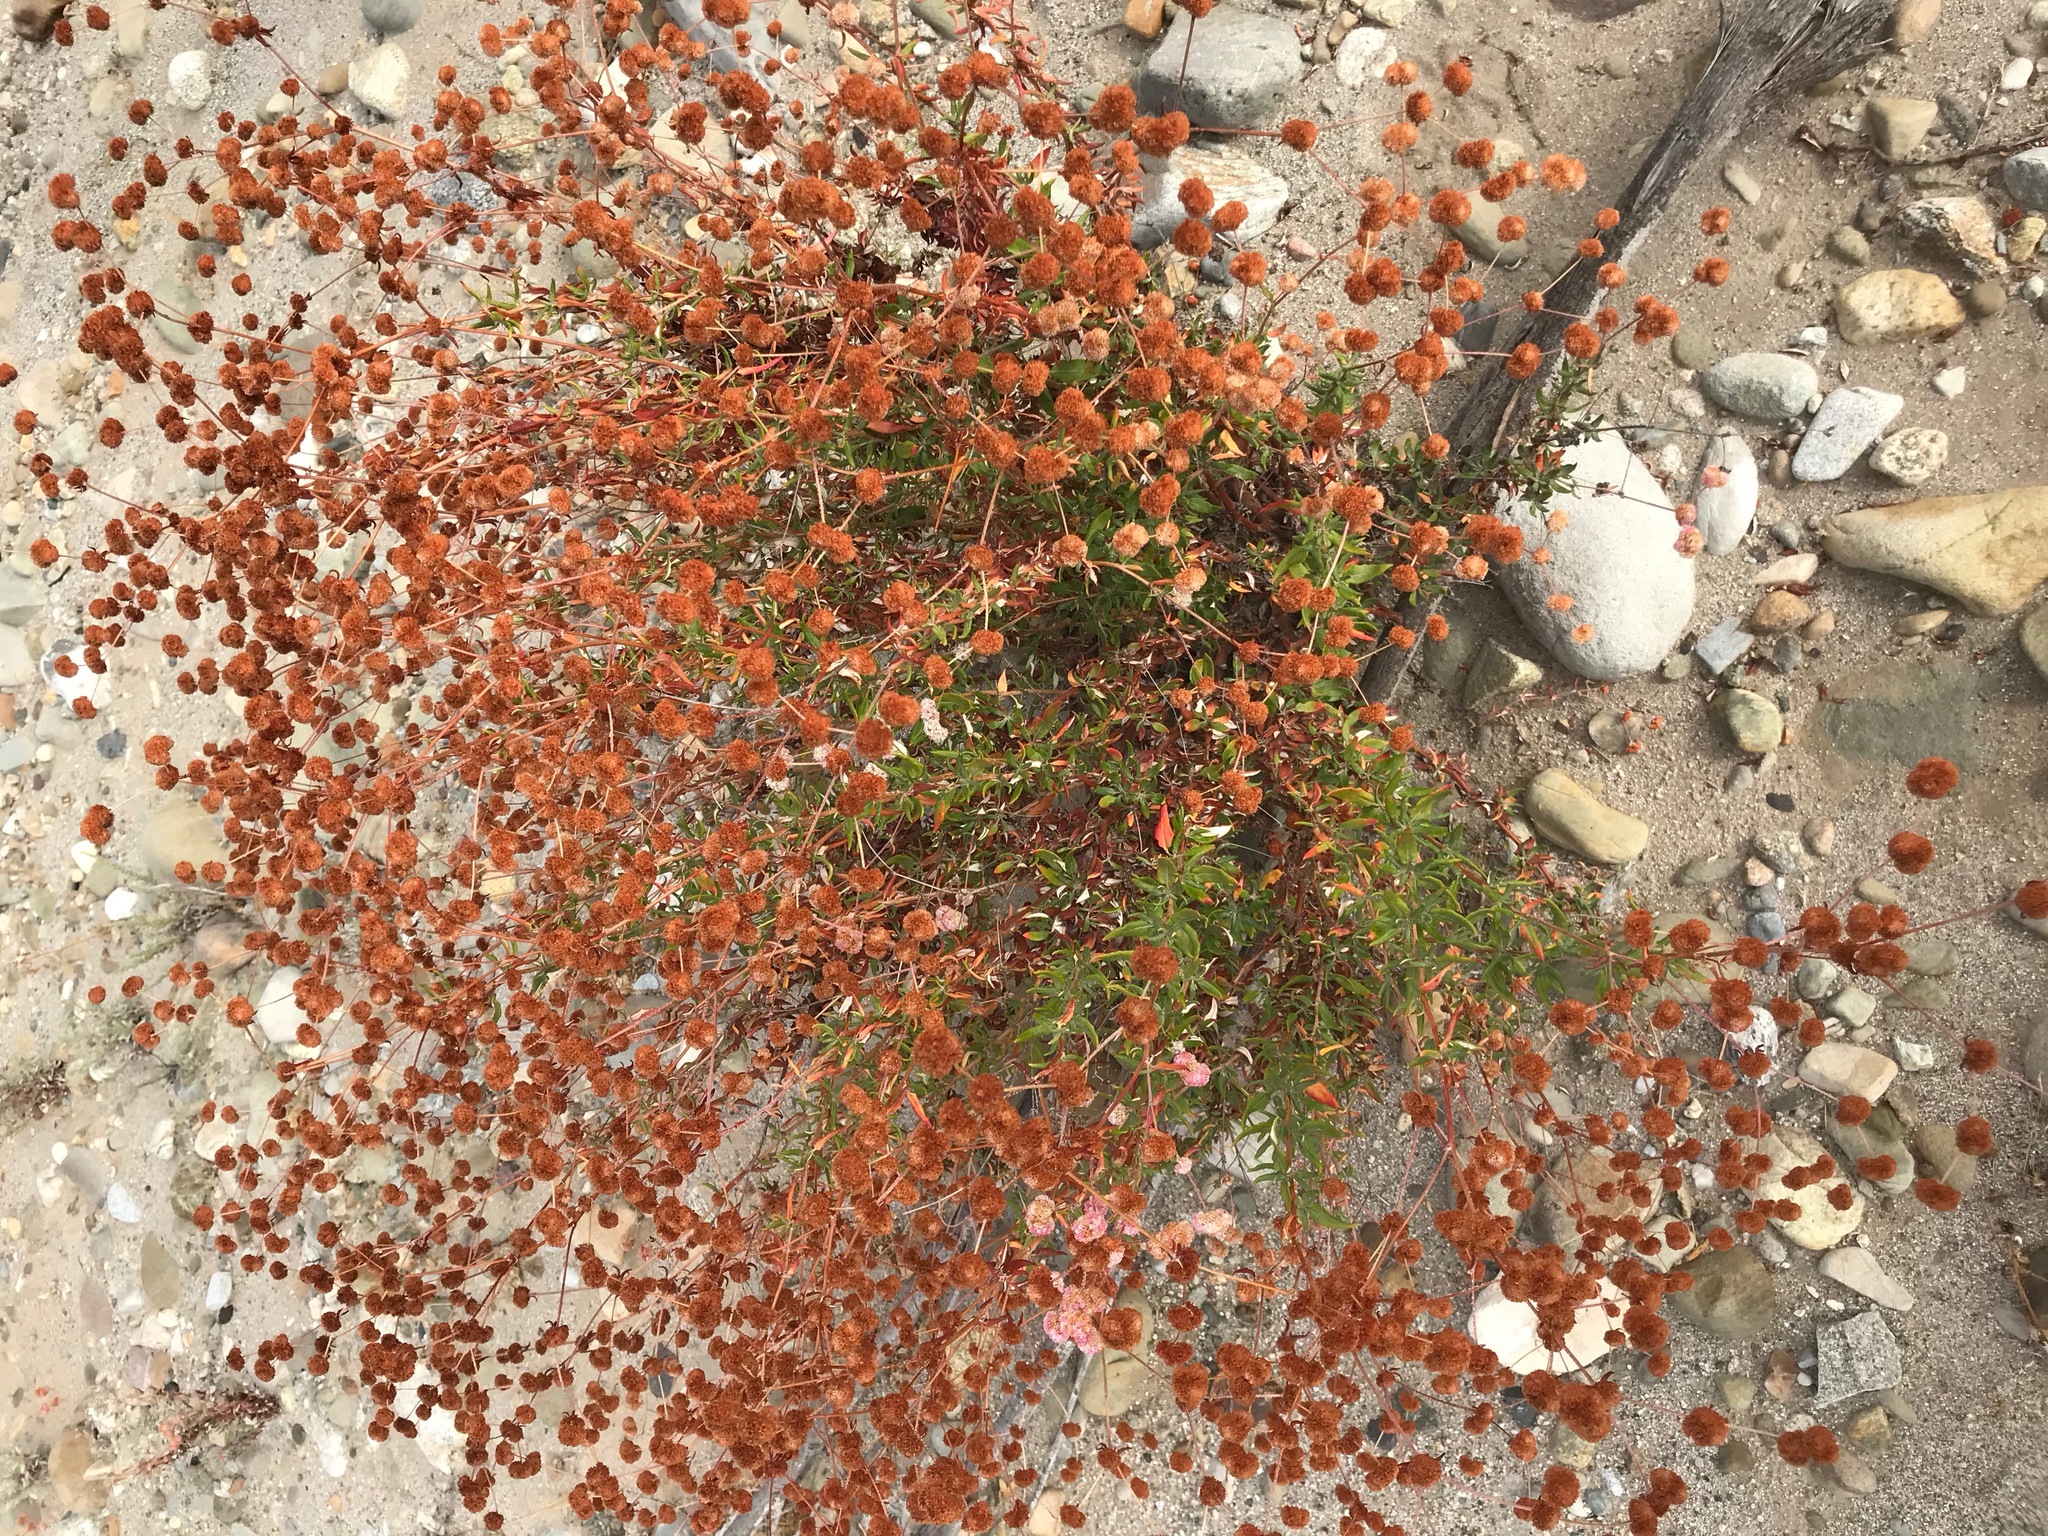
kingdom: Plantae
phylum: Tracheophyta
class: Magnoliopsida
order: Caryophyllales
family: Polygonaceae
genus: Eriogonum
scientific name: Eriogonum parvifolium
